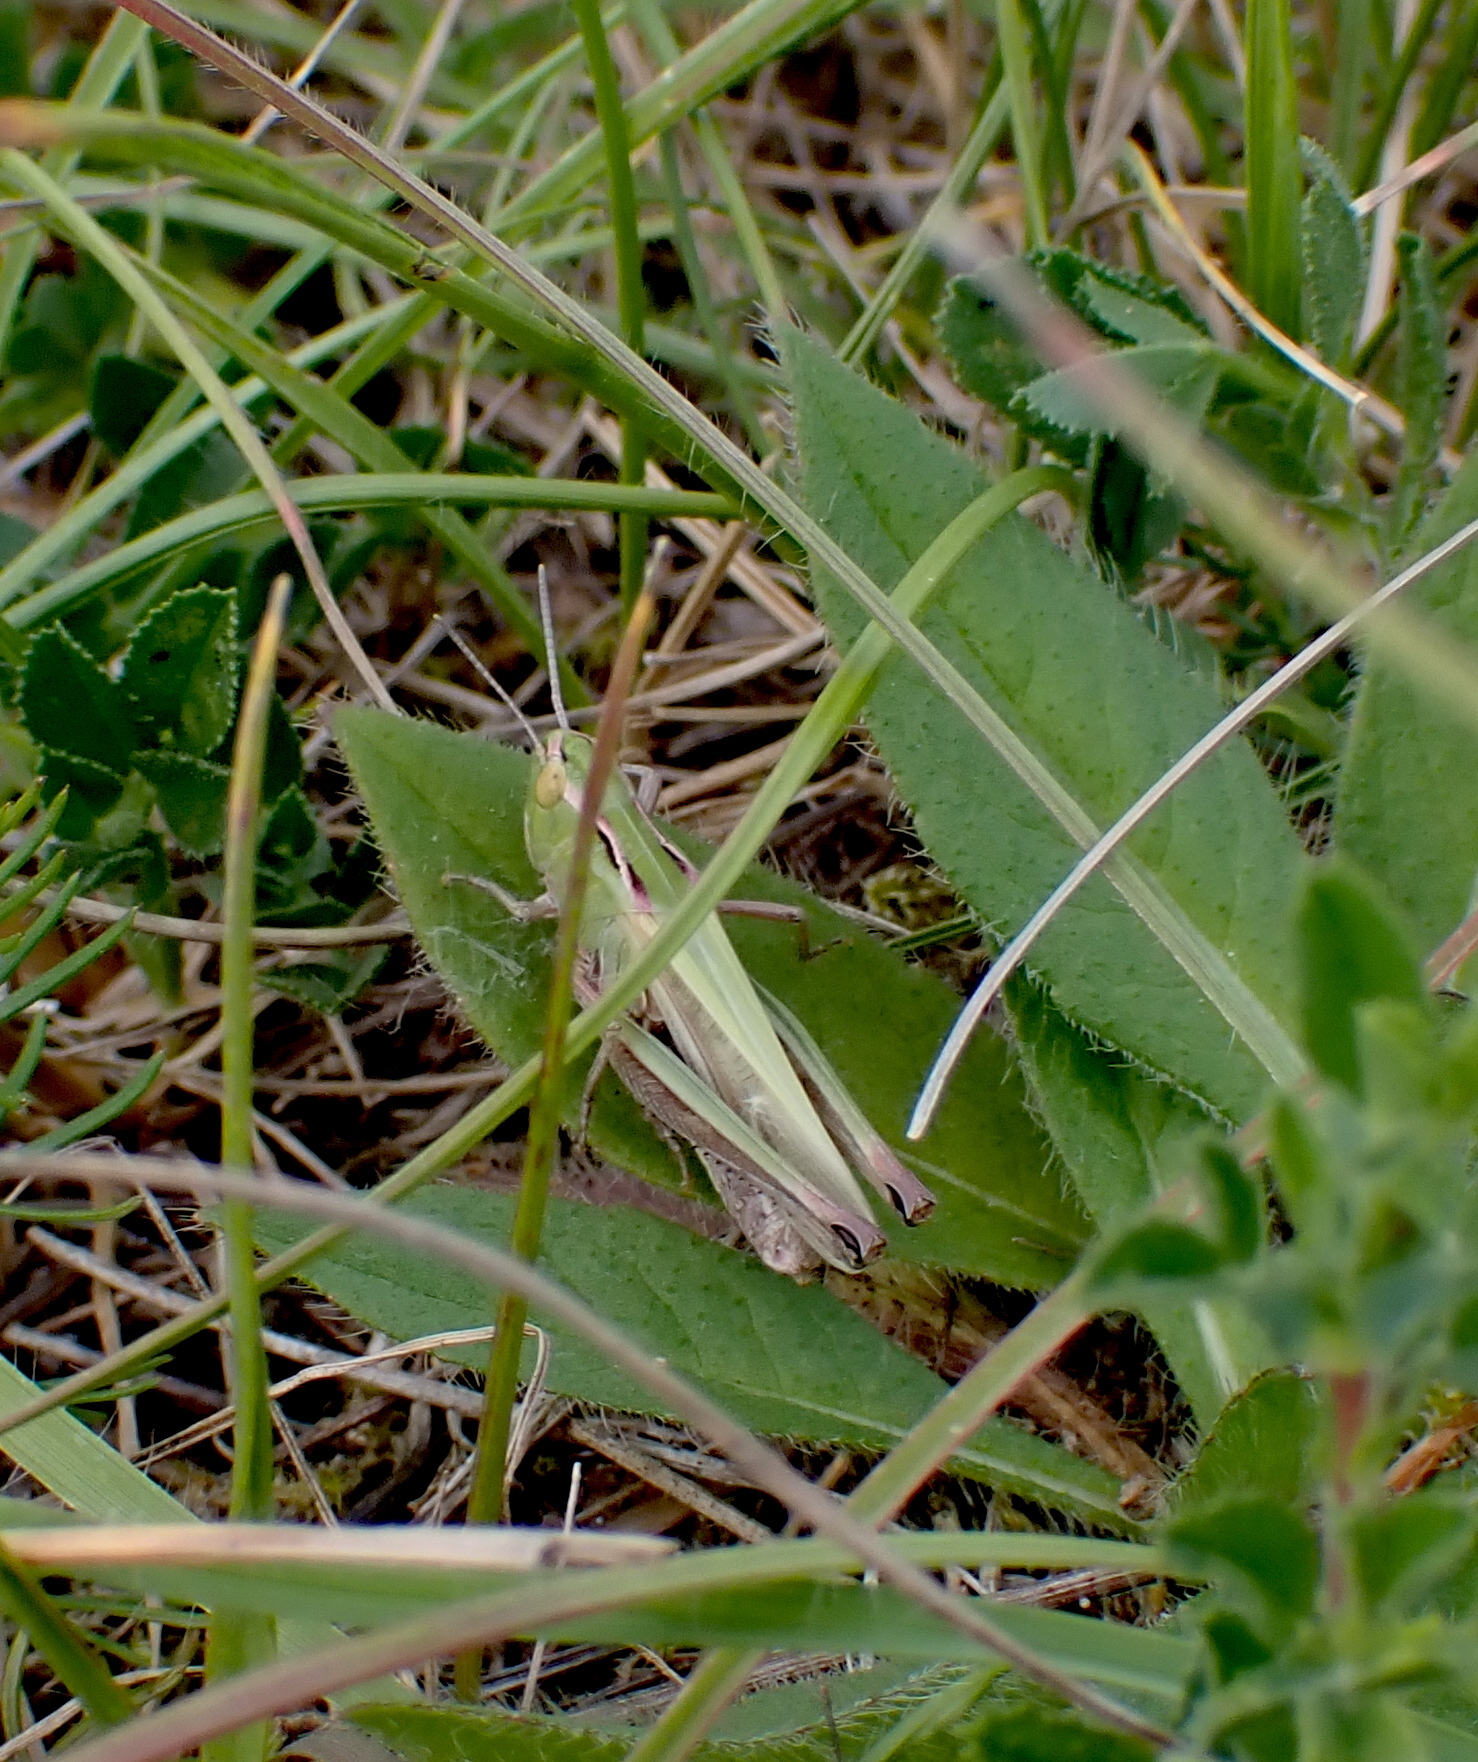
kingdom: Animalia
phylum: Arthropoda
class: Insecta
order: Orthoptera
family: Acrididae
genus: Stenobothrus
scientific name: Stenobothrus lineatus
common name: Stripe-winged grasshopper
